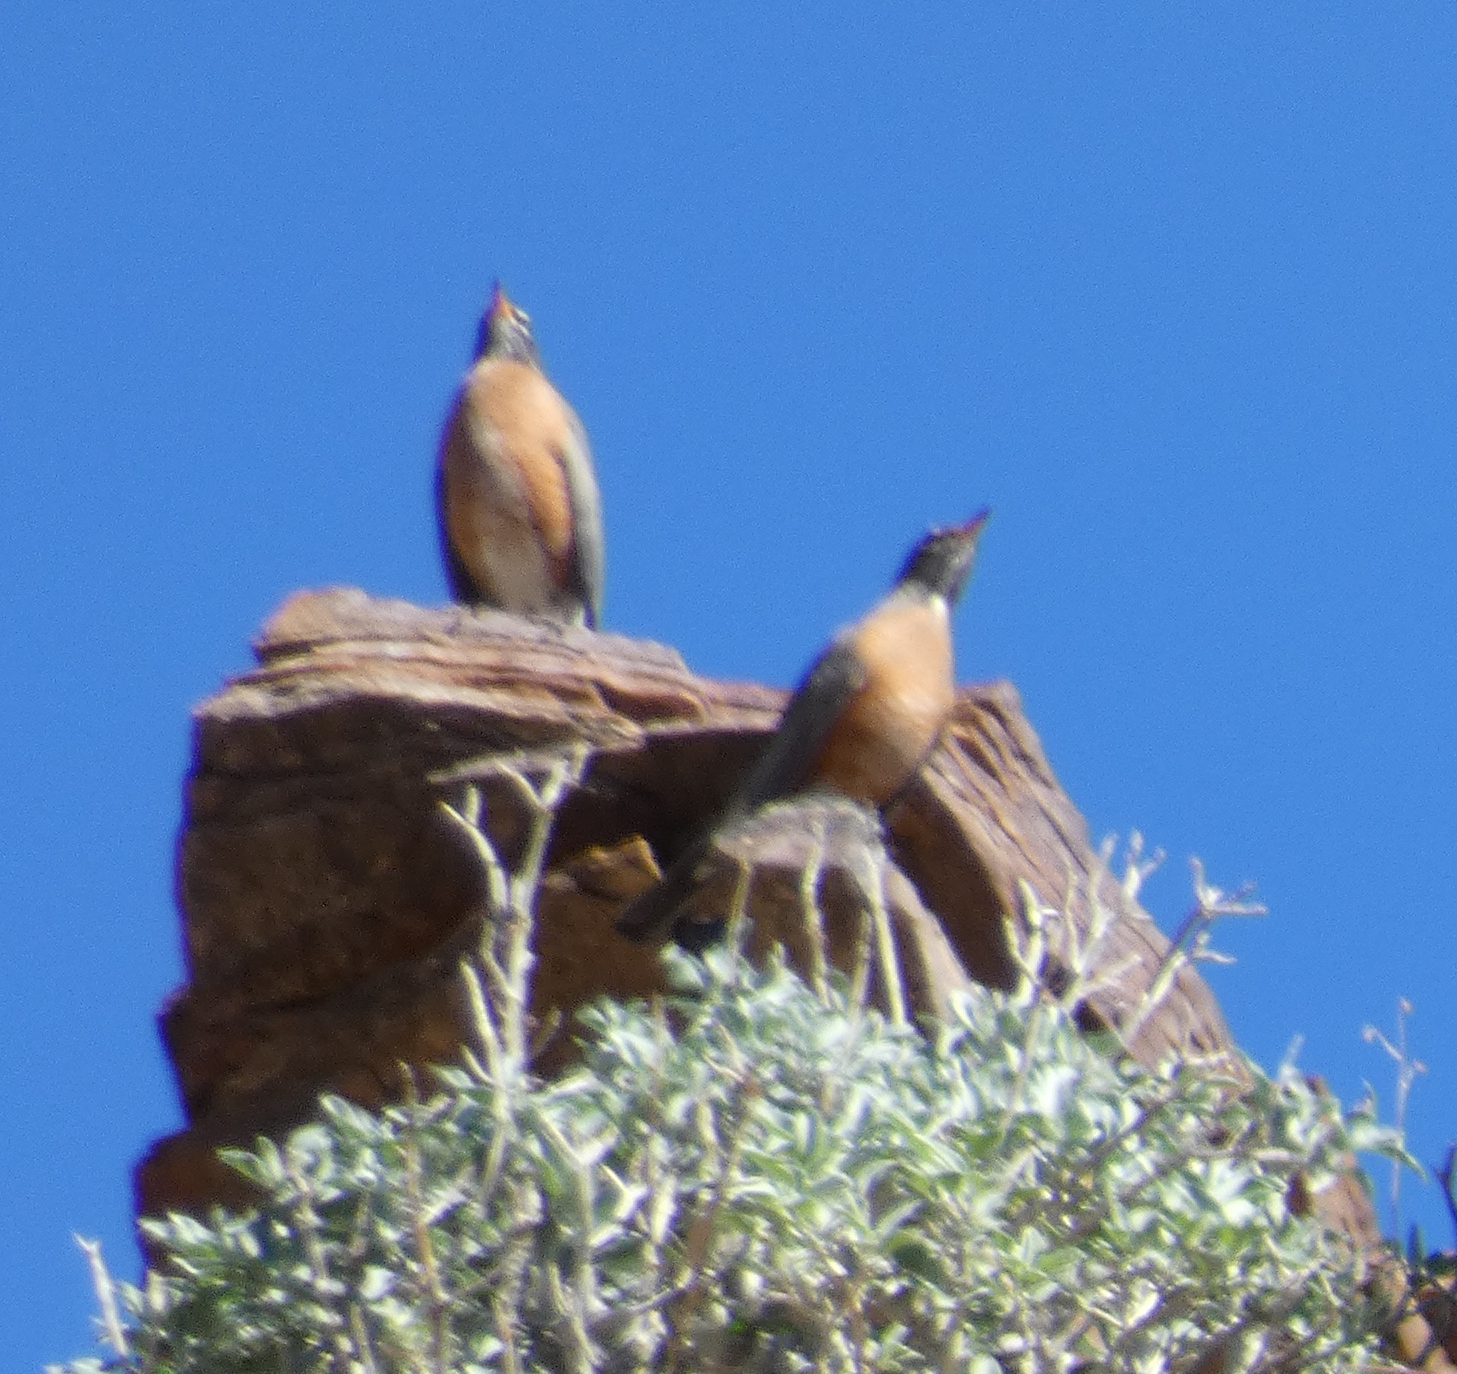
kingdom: Animalia
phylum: Chordata
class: Aves
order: Passeriformes
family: Turdidae
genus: Turdus
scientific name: Turdus migratorius
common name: American robin
